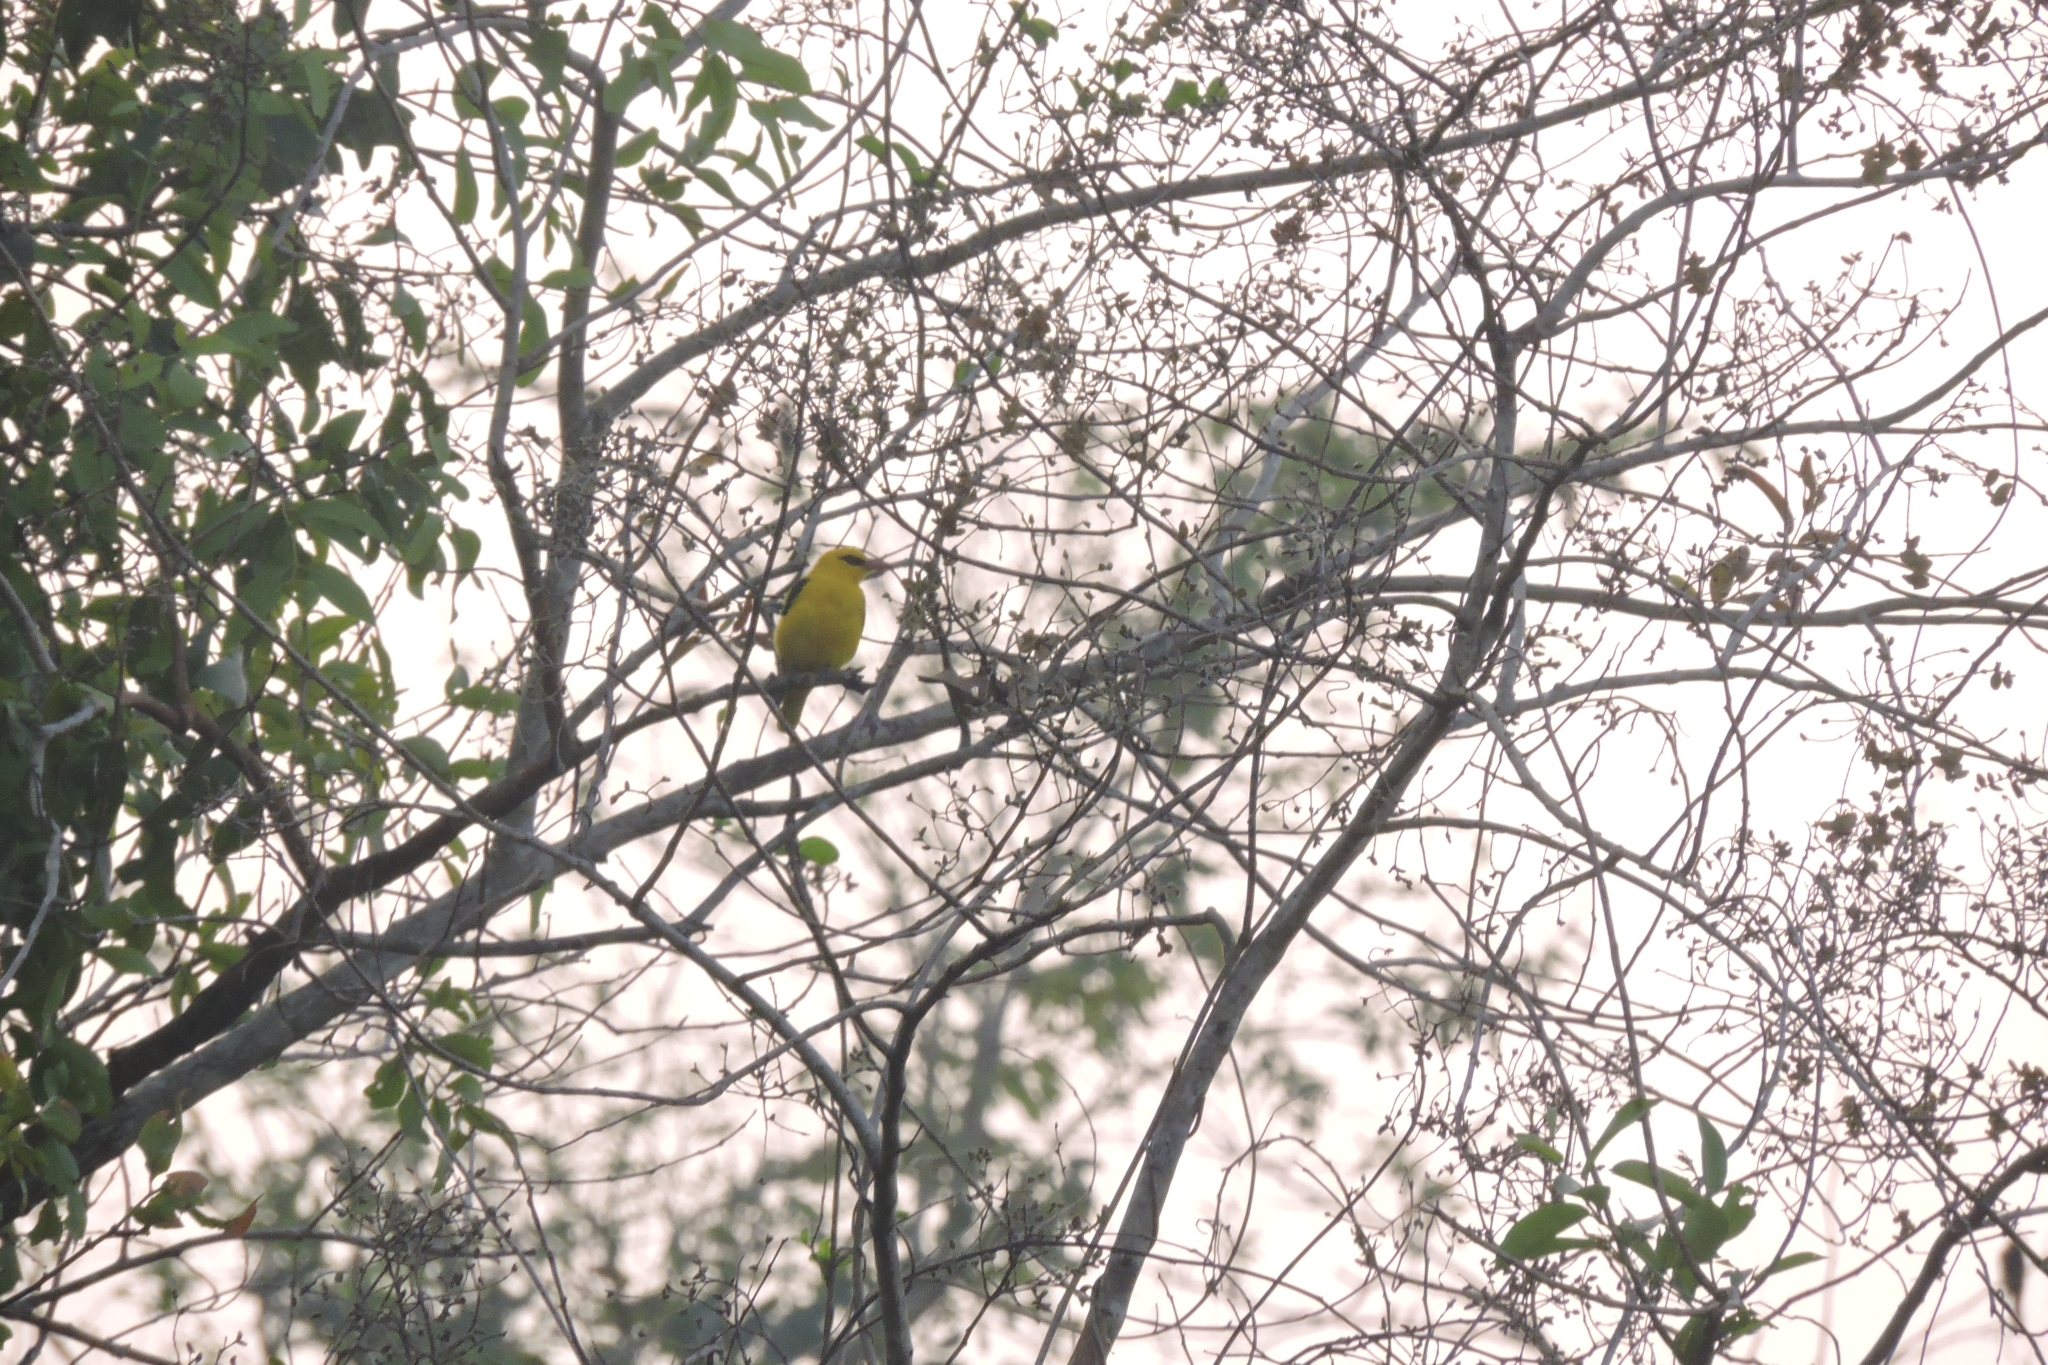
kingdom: Animalia
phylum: Chordata
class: Aves
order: Passeriformes
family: Oriolidae
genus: Oriolus
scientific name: Oriolus kundoo
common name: Indian golden oriole
